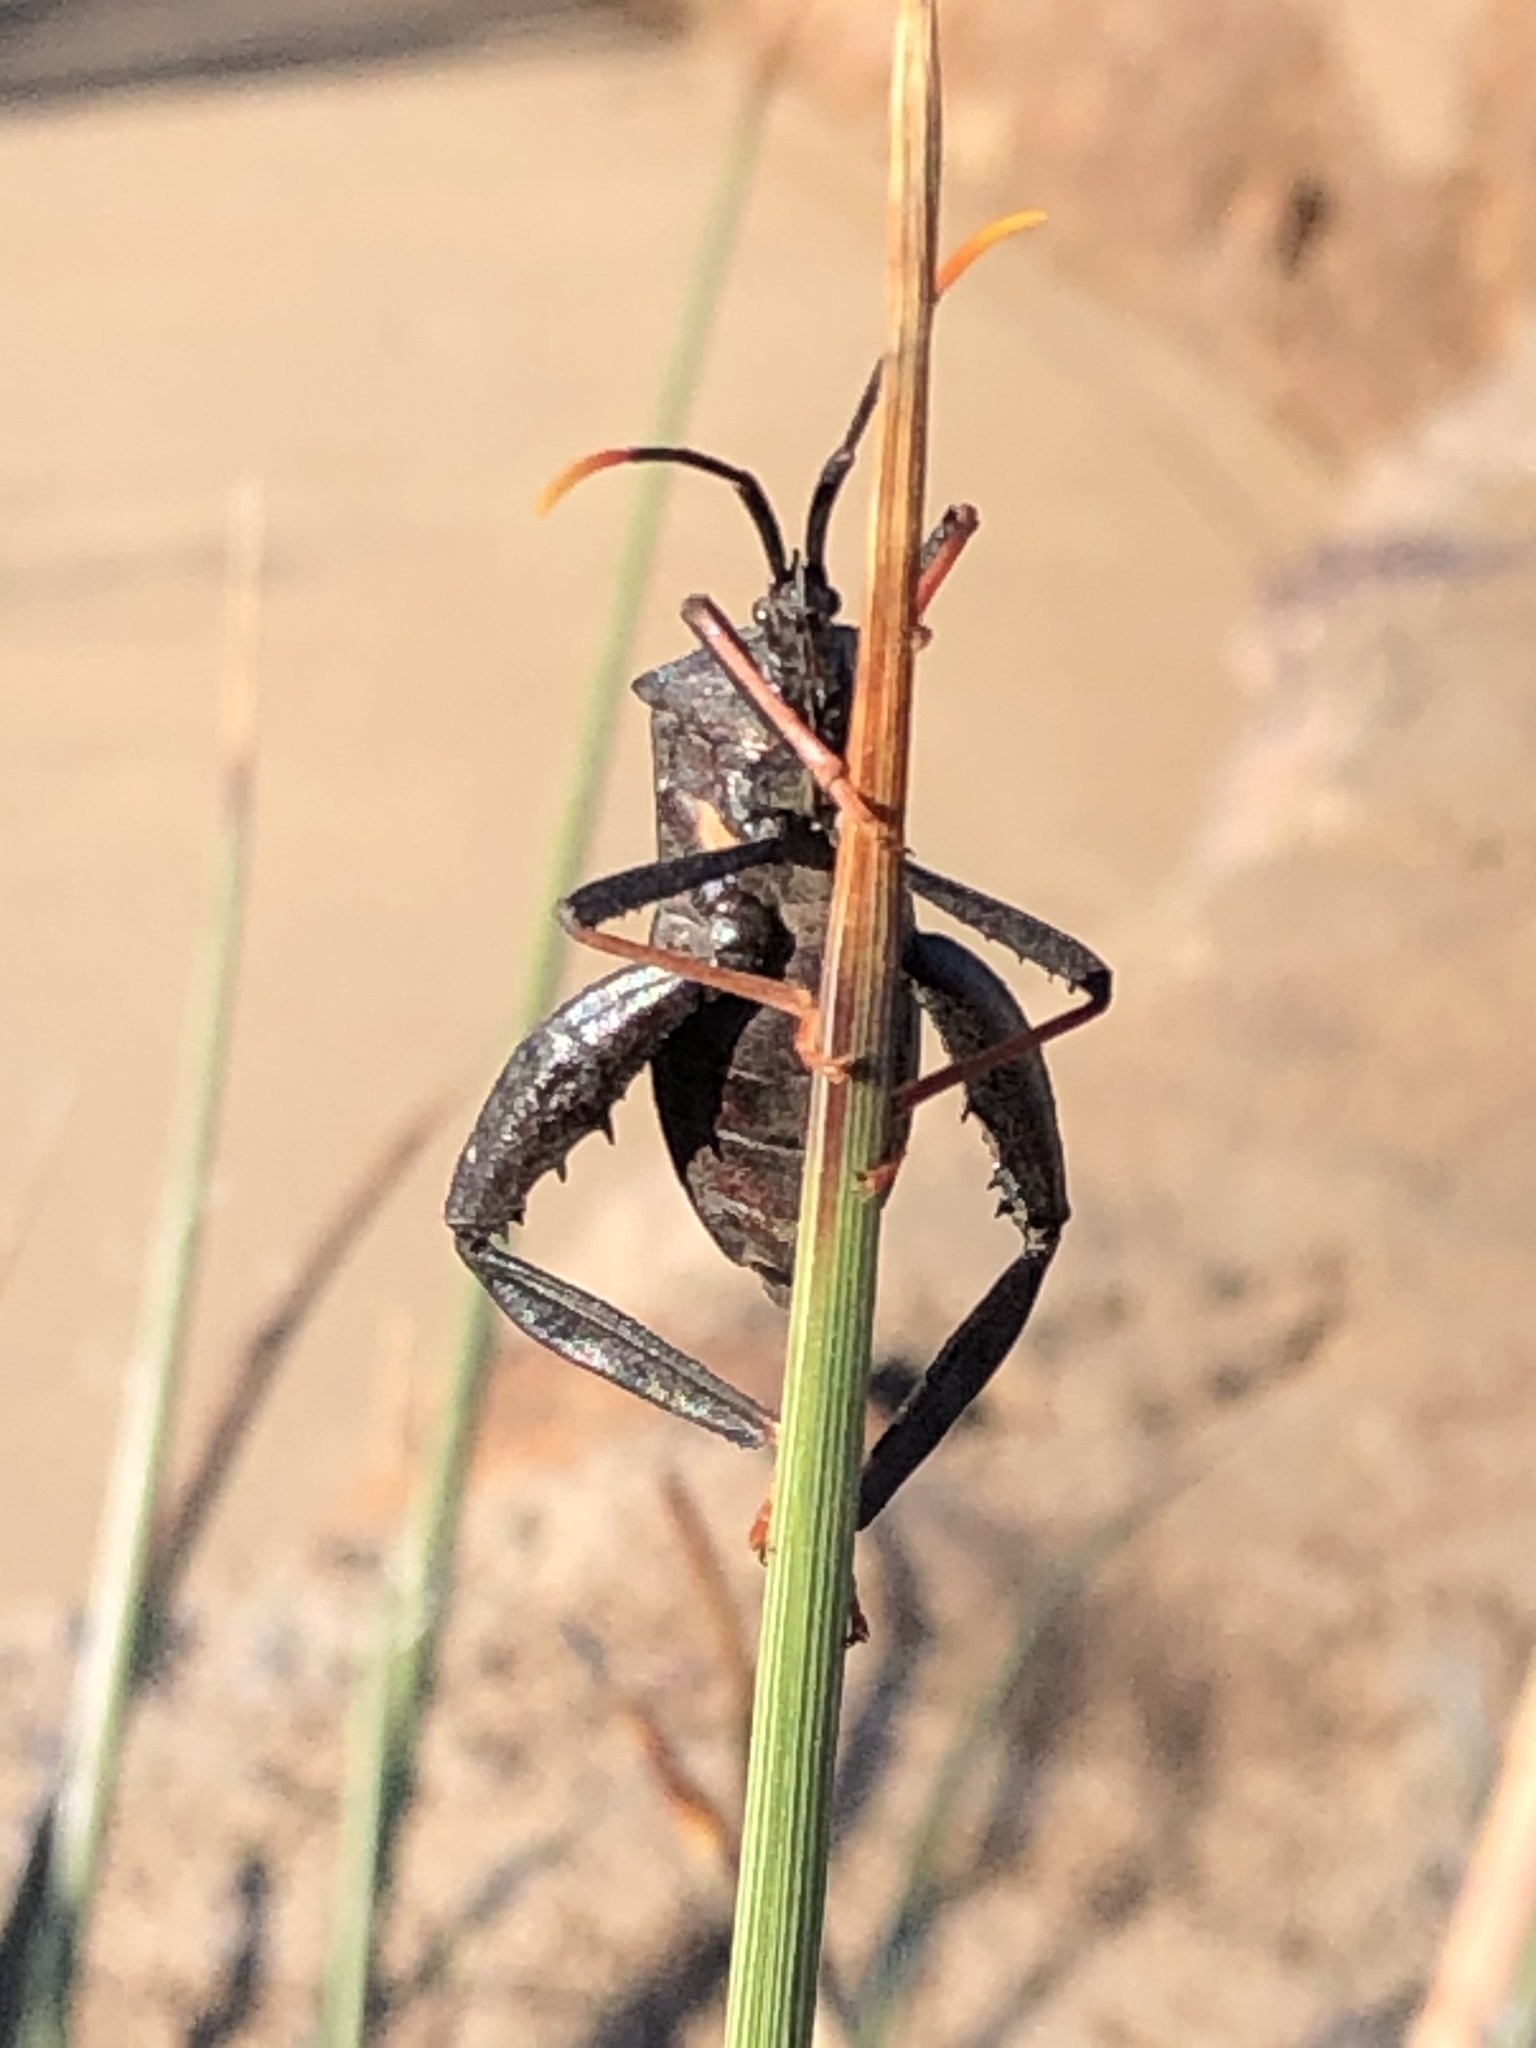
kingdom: Animalia
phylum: Arthropoda
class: Insecta
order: Hemiptera
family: Coreidae
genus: Acanthocephala
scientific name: Acanthocephala thomasi
